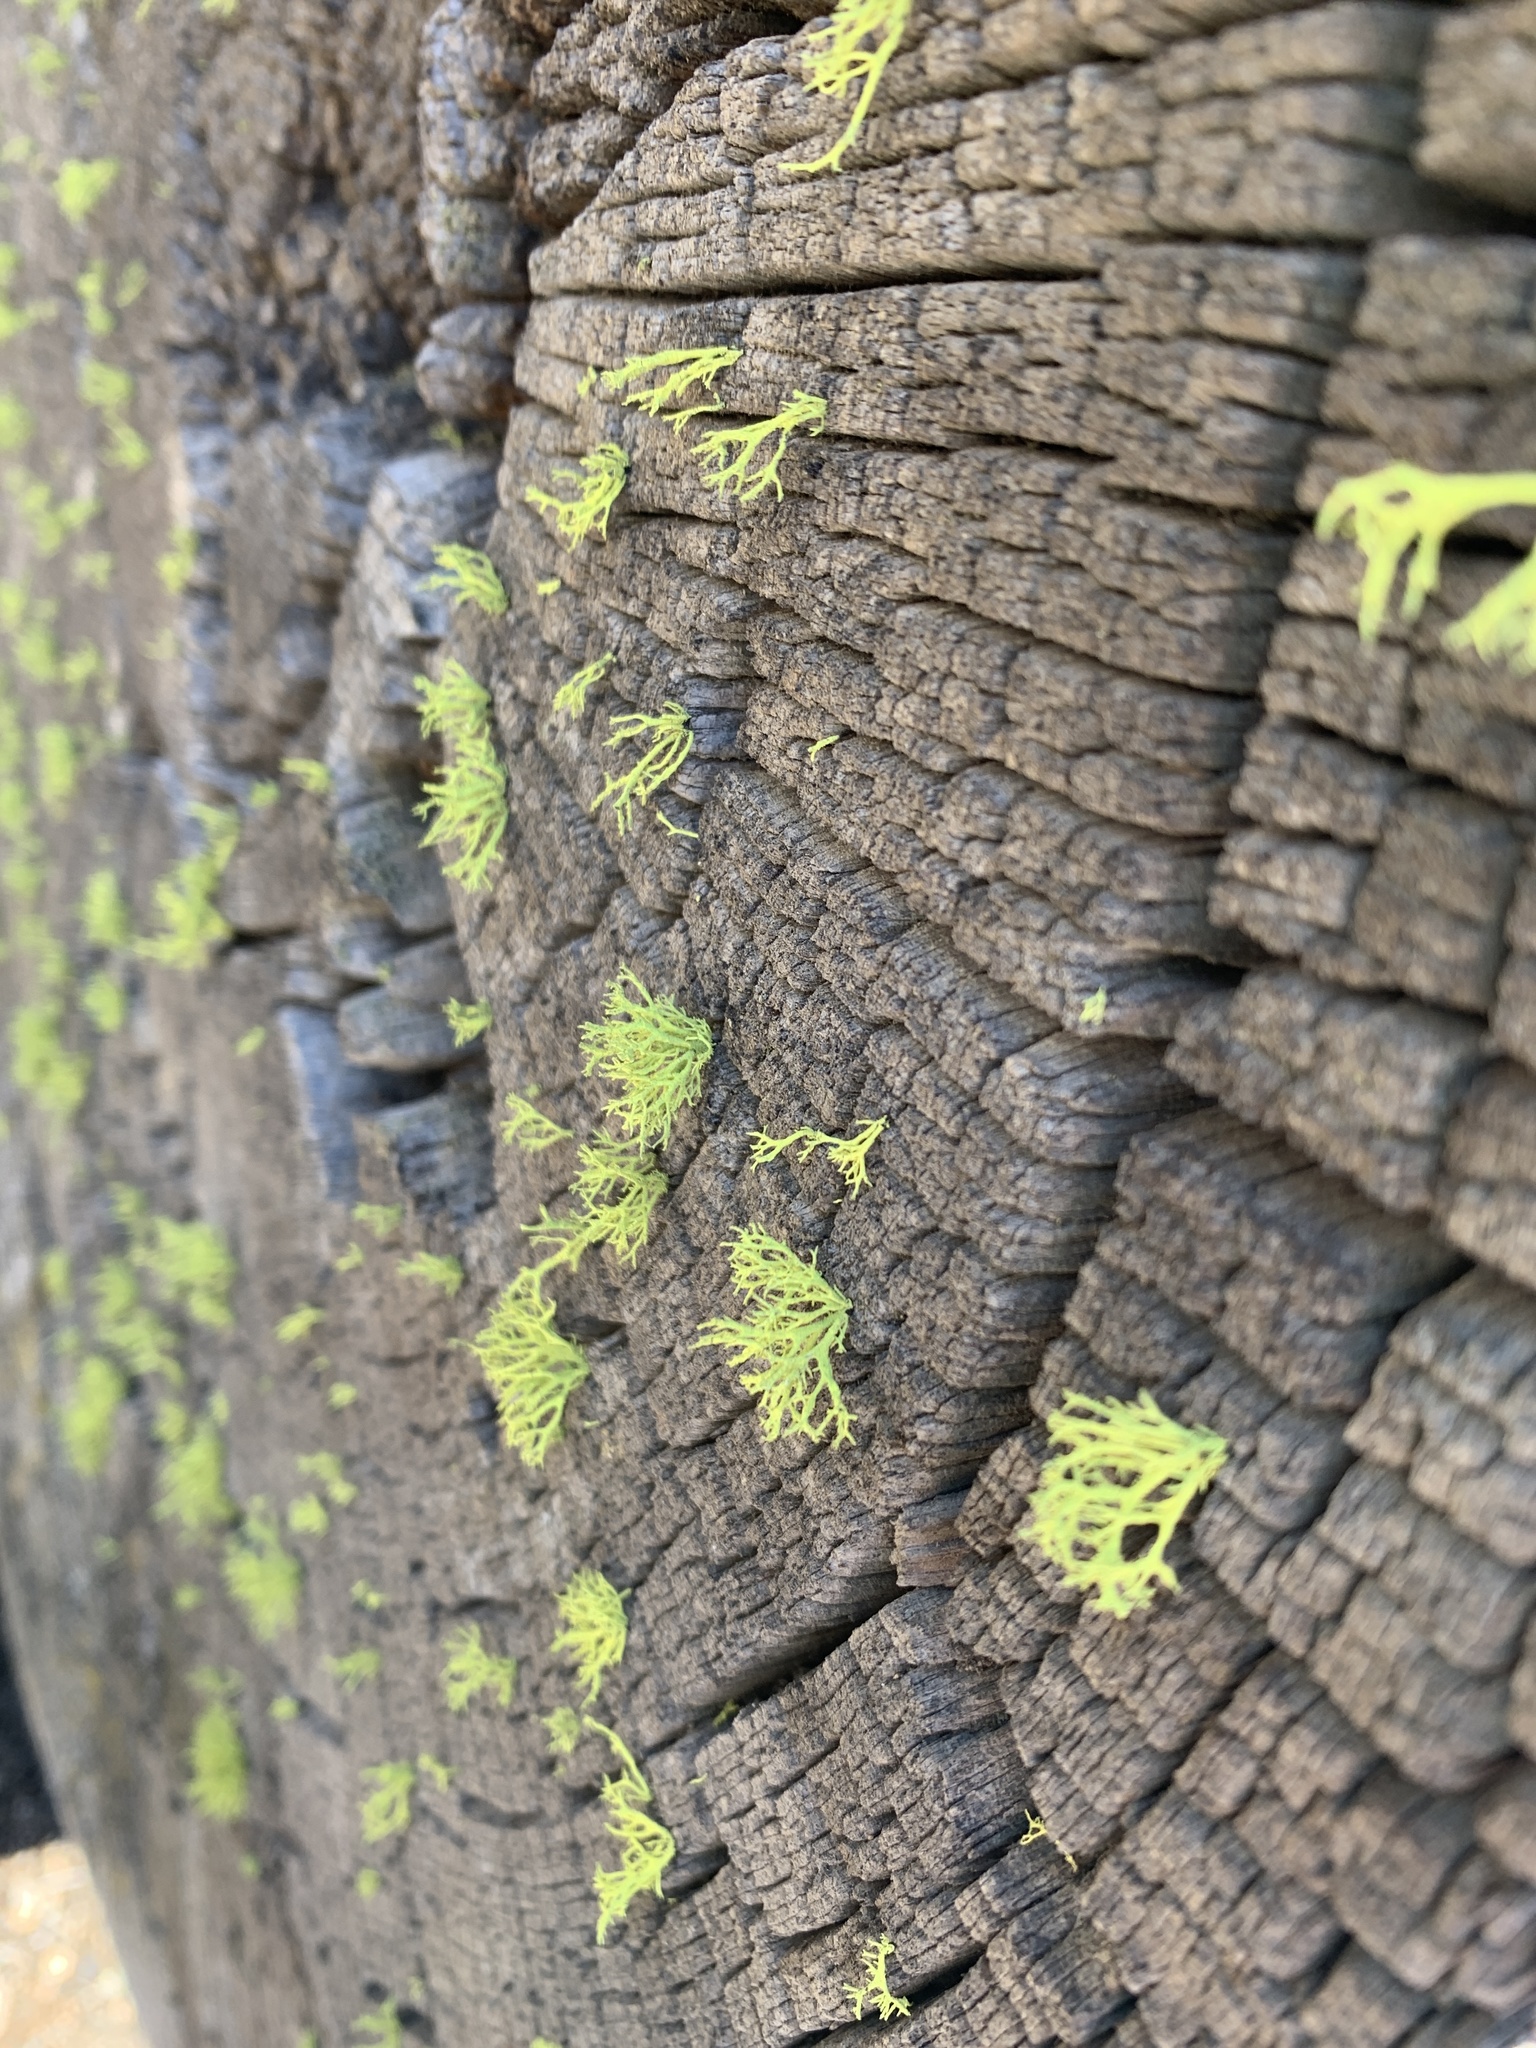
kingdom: Fungi
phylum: Ascomycota
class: Lecanoromycetes
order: Lecanorales
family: Parmeliaceae
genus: Letharia
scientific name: Letharia vulpina
